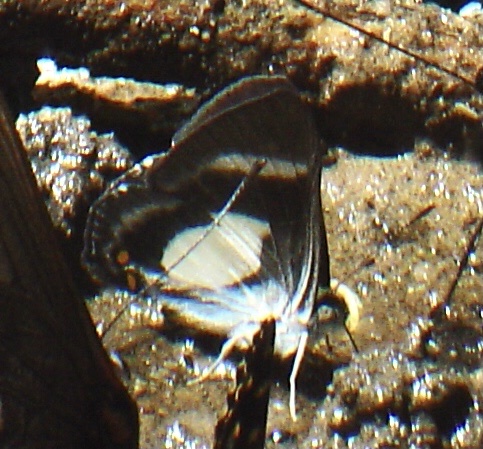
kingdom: Animalia
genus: Siseme
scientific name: Siseme alectryo
